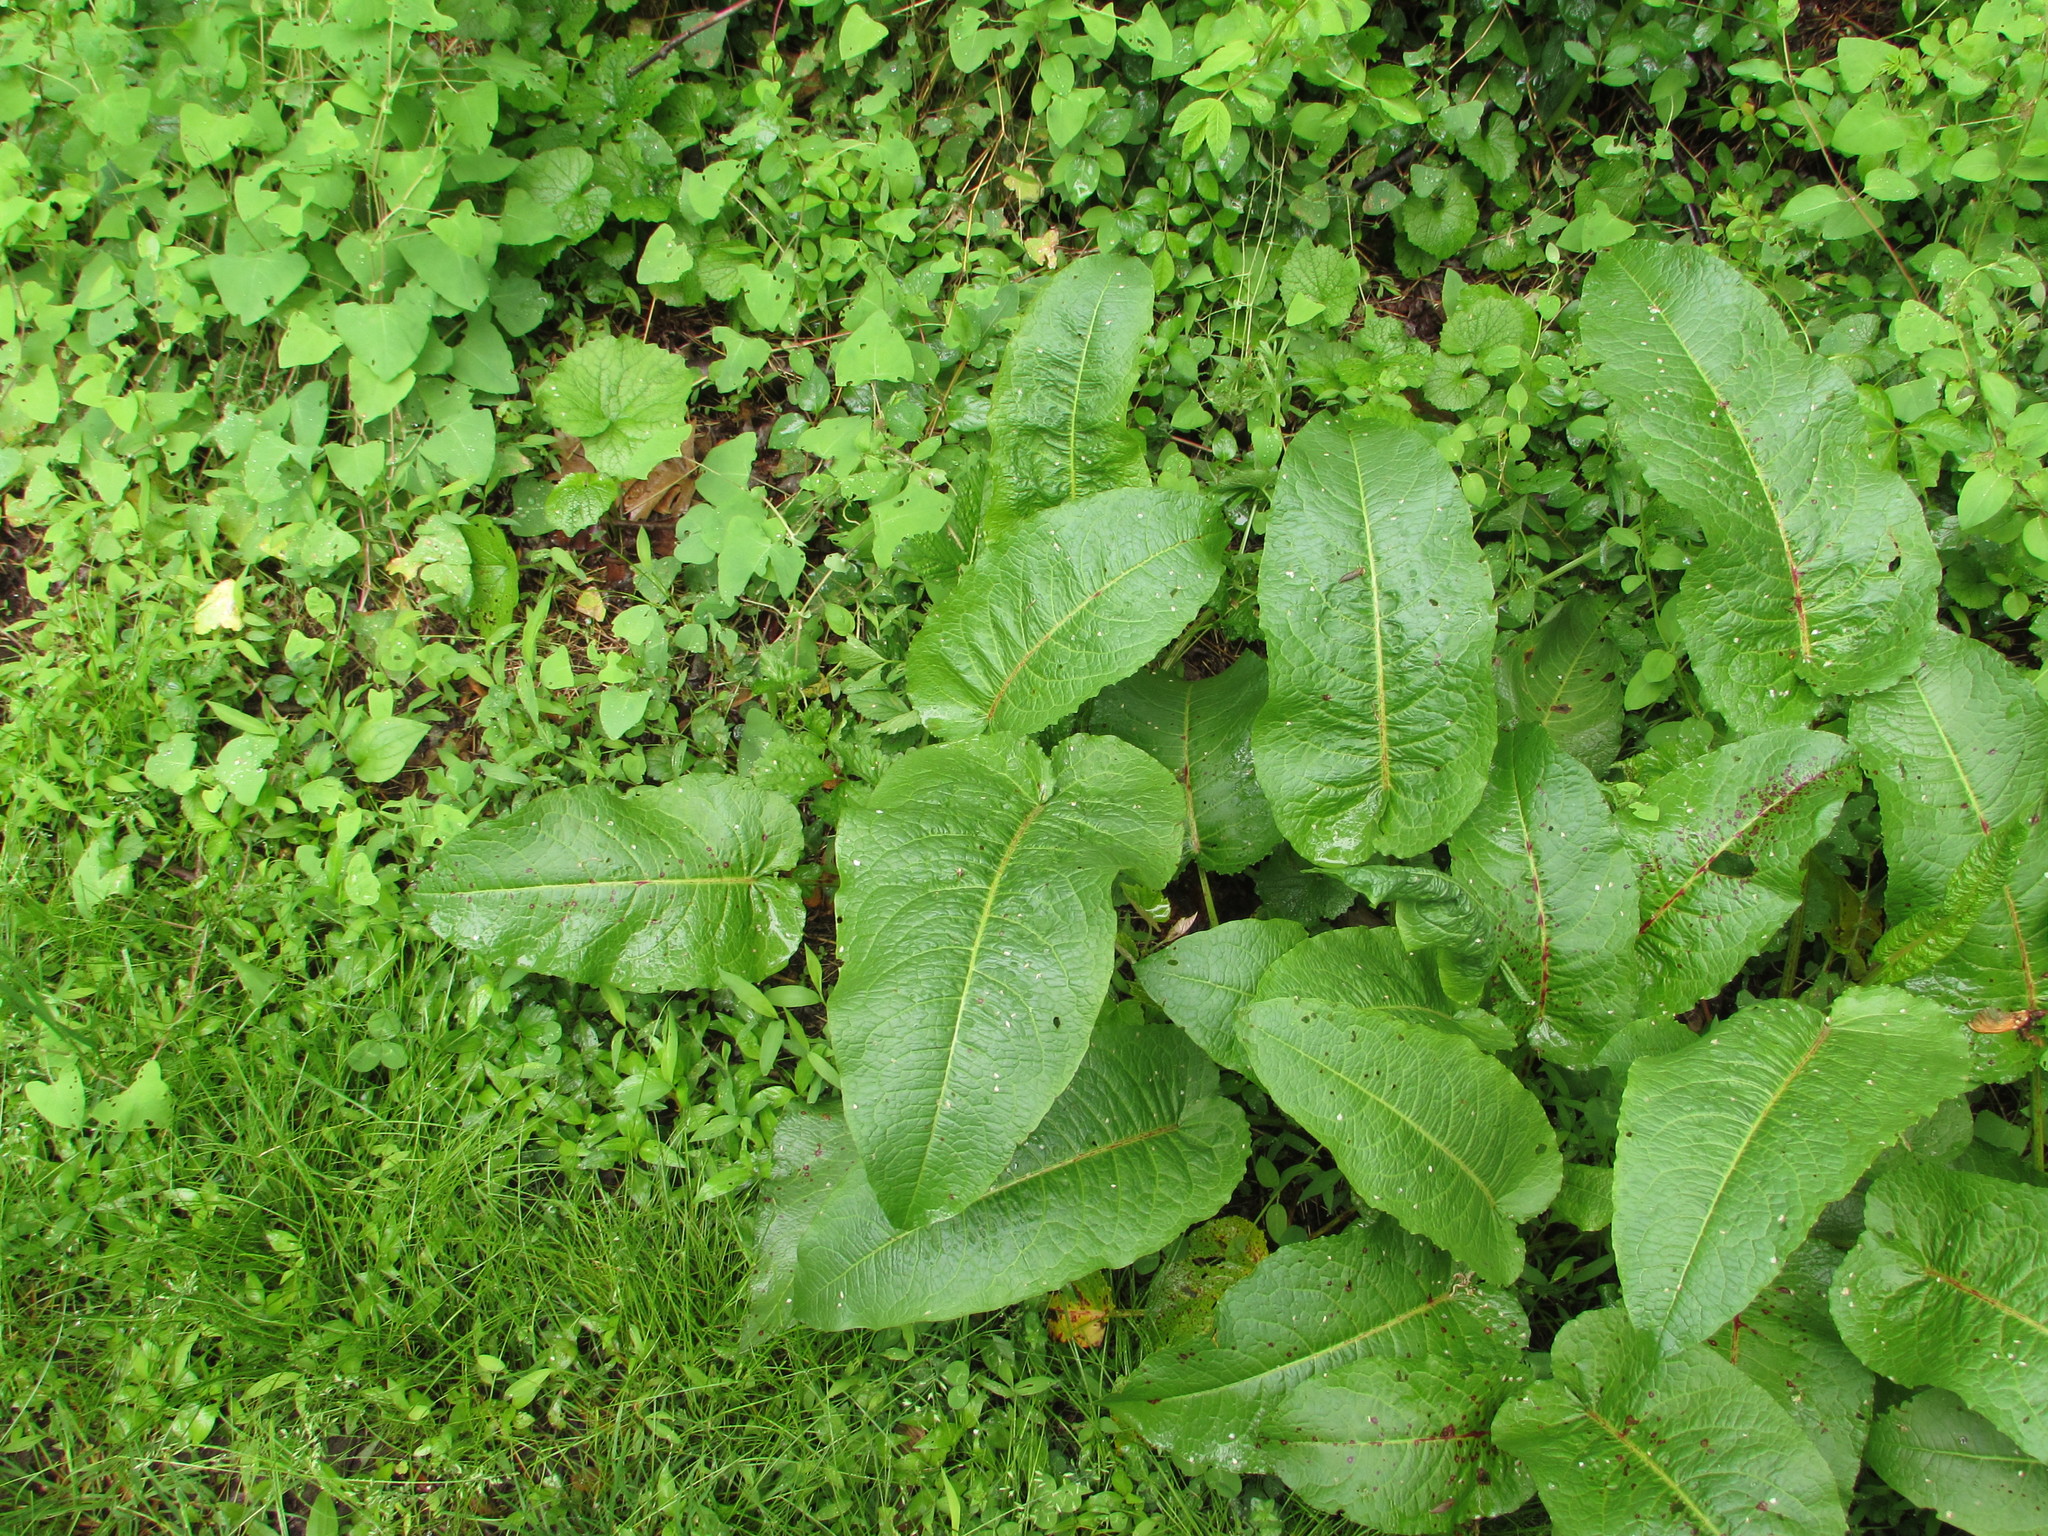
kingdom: Plantae
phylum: Tracheophyta
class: Magnoliopsida
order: Caryophyllales
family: Polygonaceae
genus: Rumex
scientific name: Rumex obtusifolius
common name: Bitter dock
